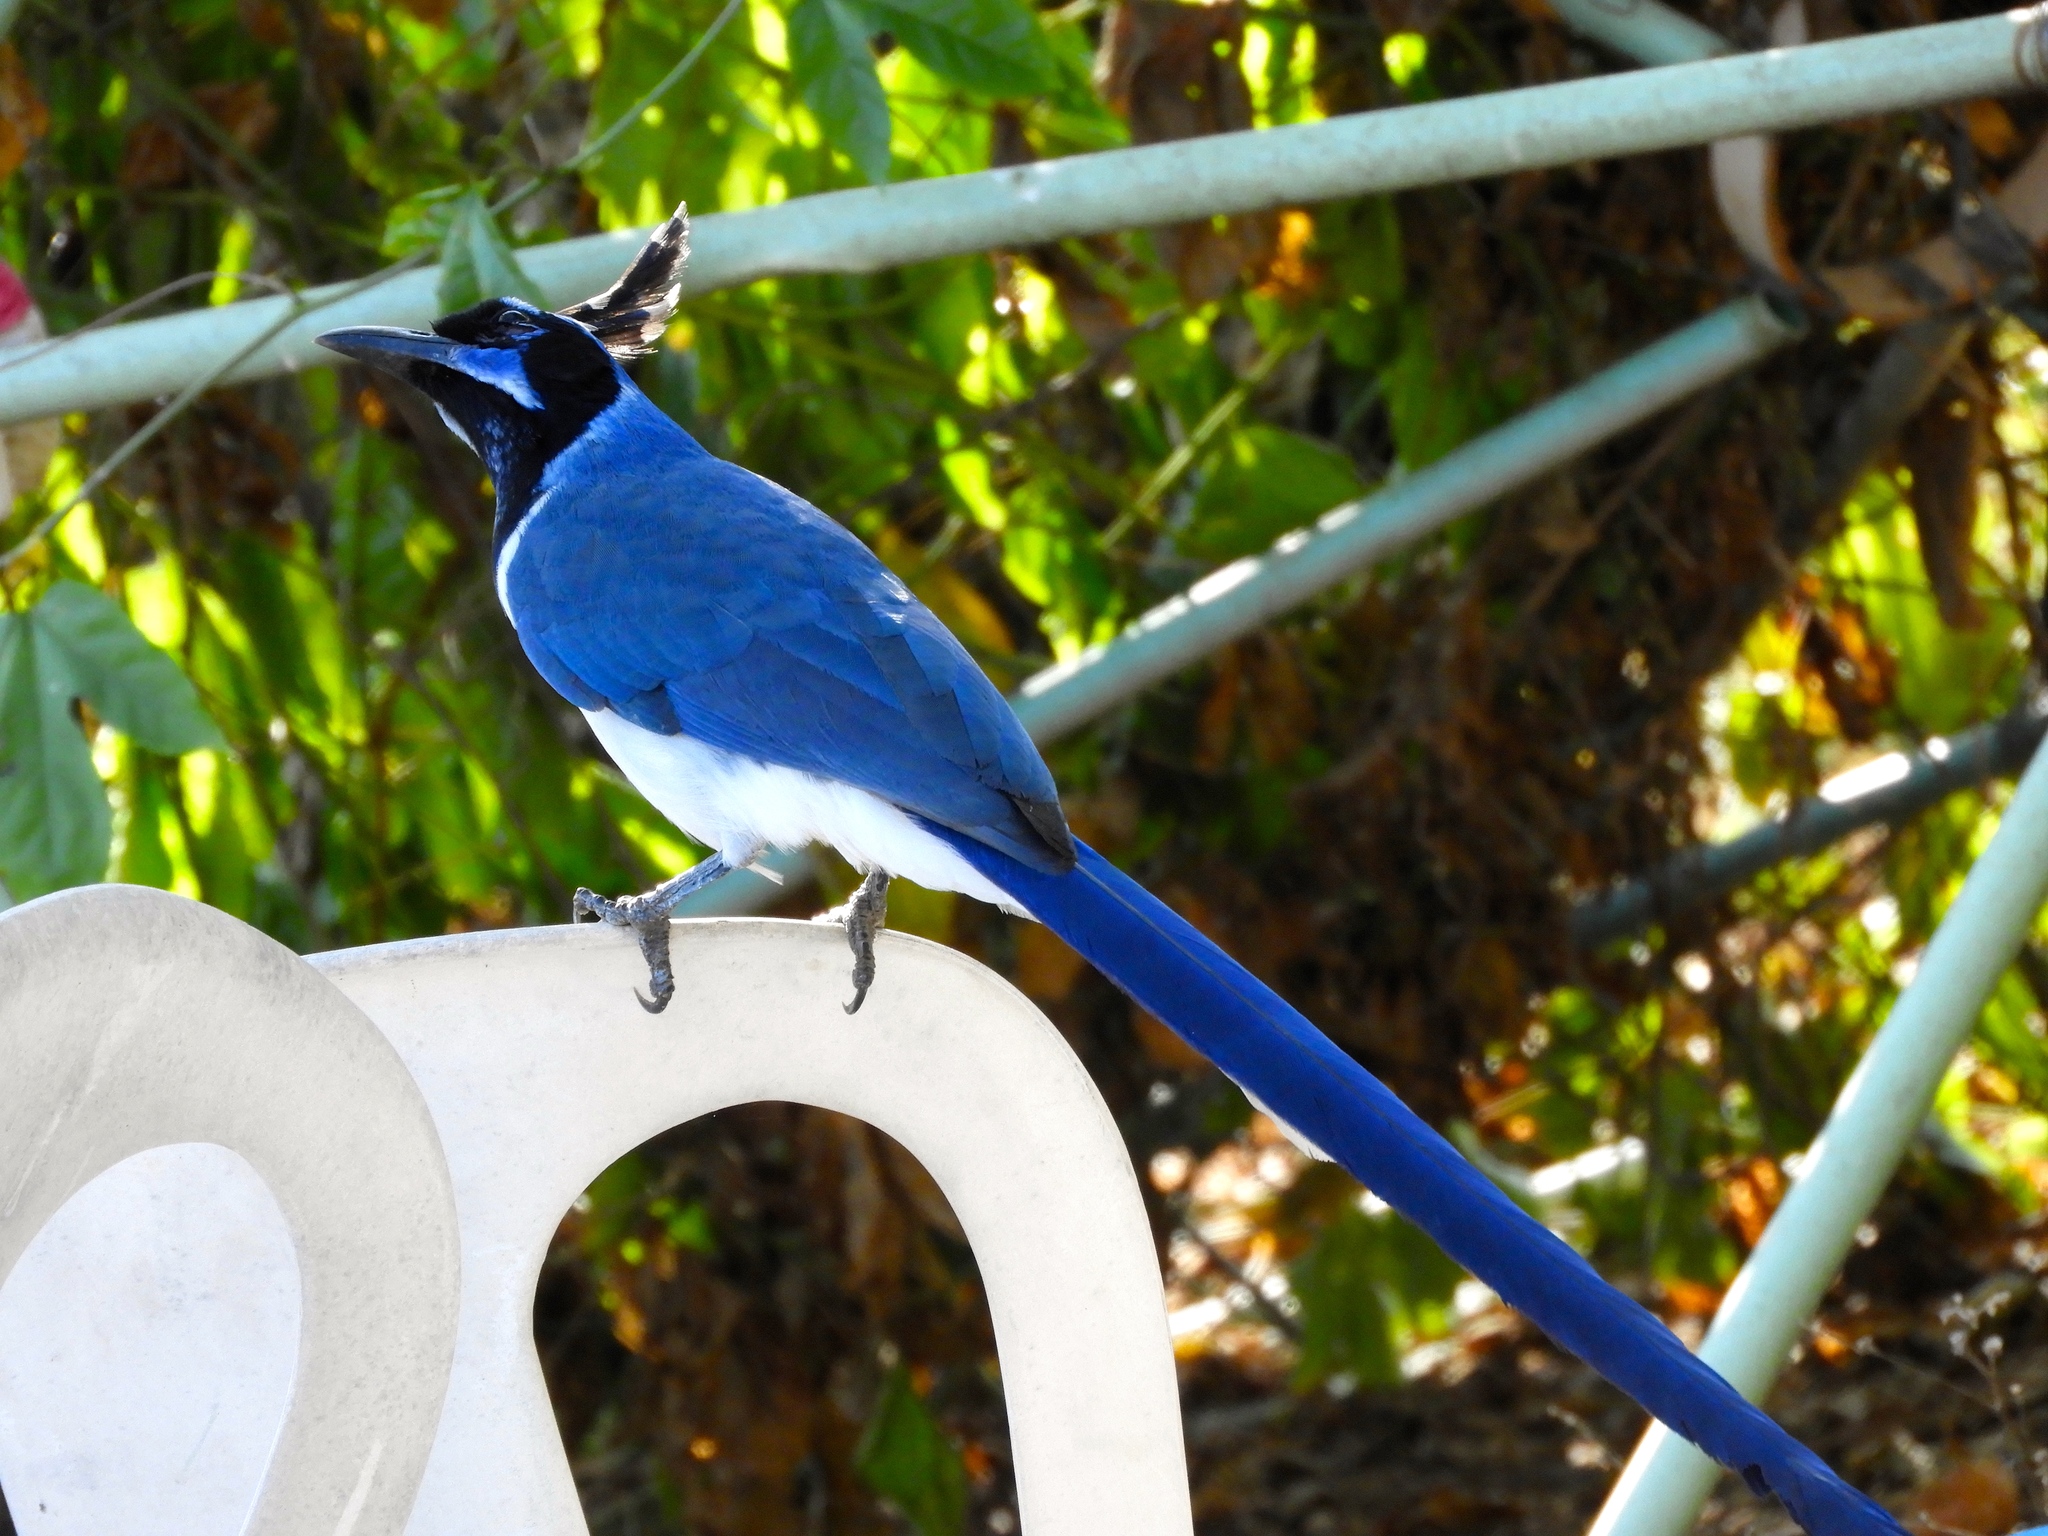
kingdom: Animalia
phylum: Chordata
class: Aves
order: Passeriformes
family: Corvidae
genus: Calocitta
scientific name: Calocitta colliei
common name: Black-throated magpie-jay
